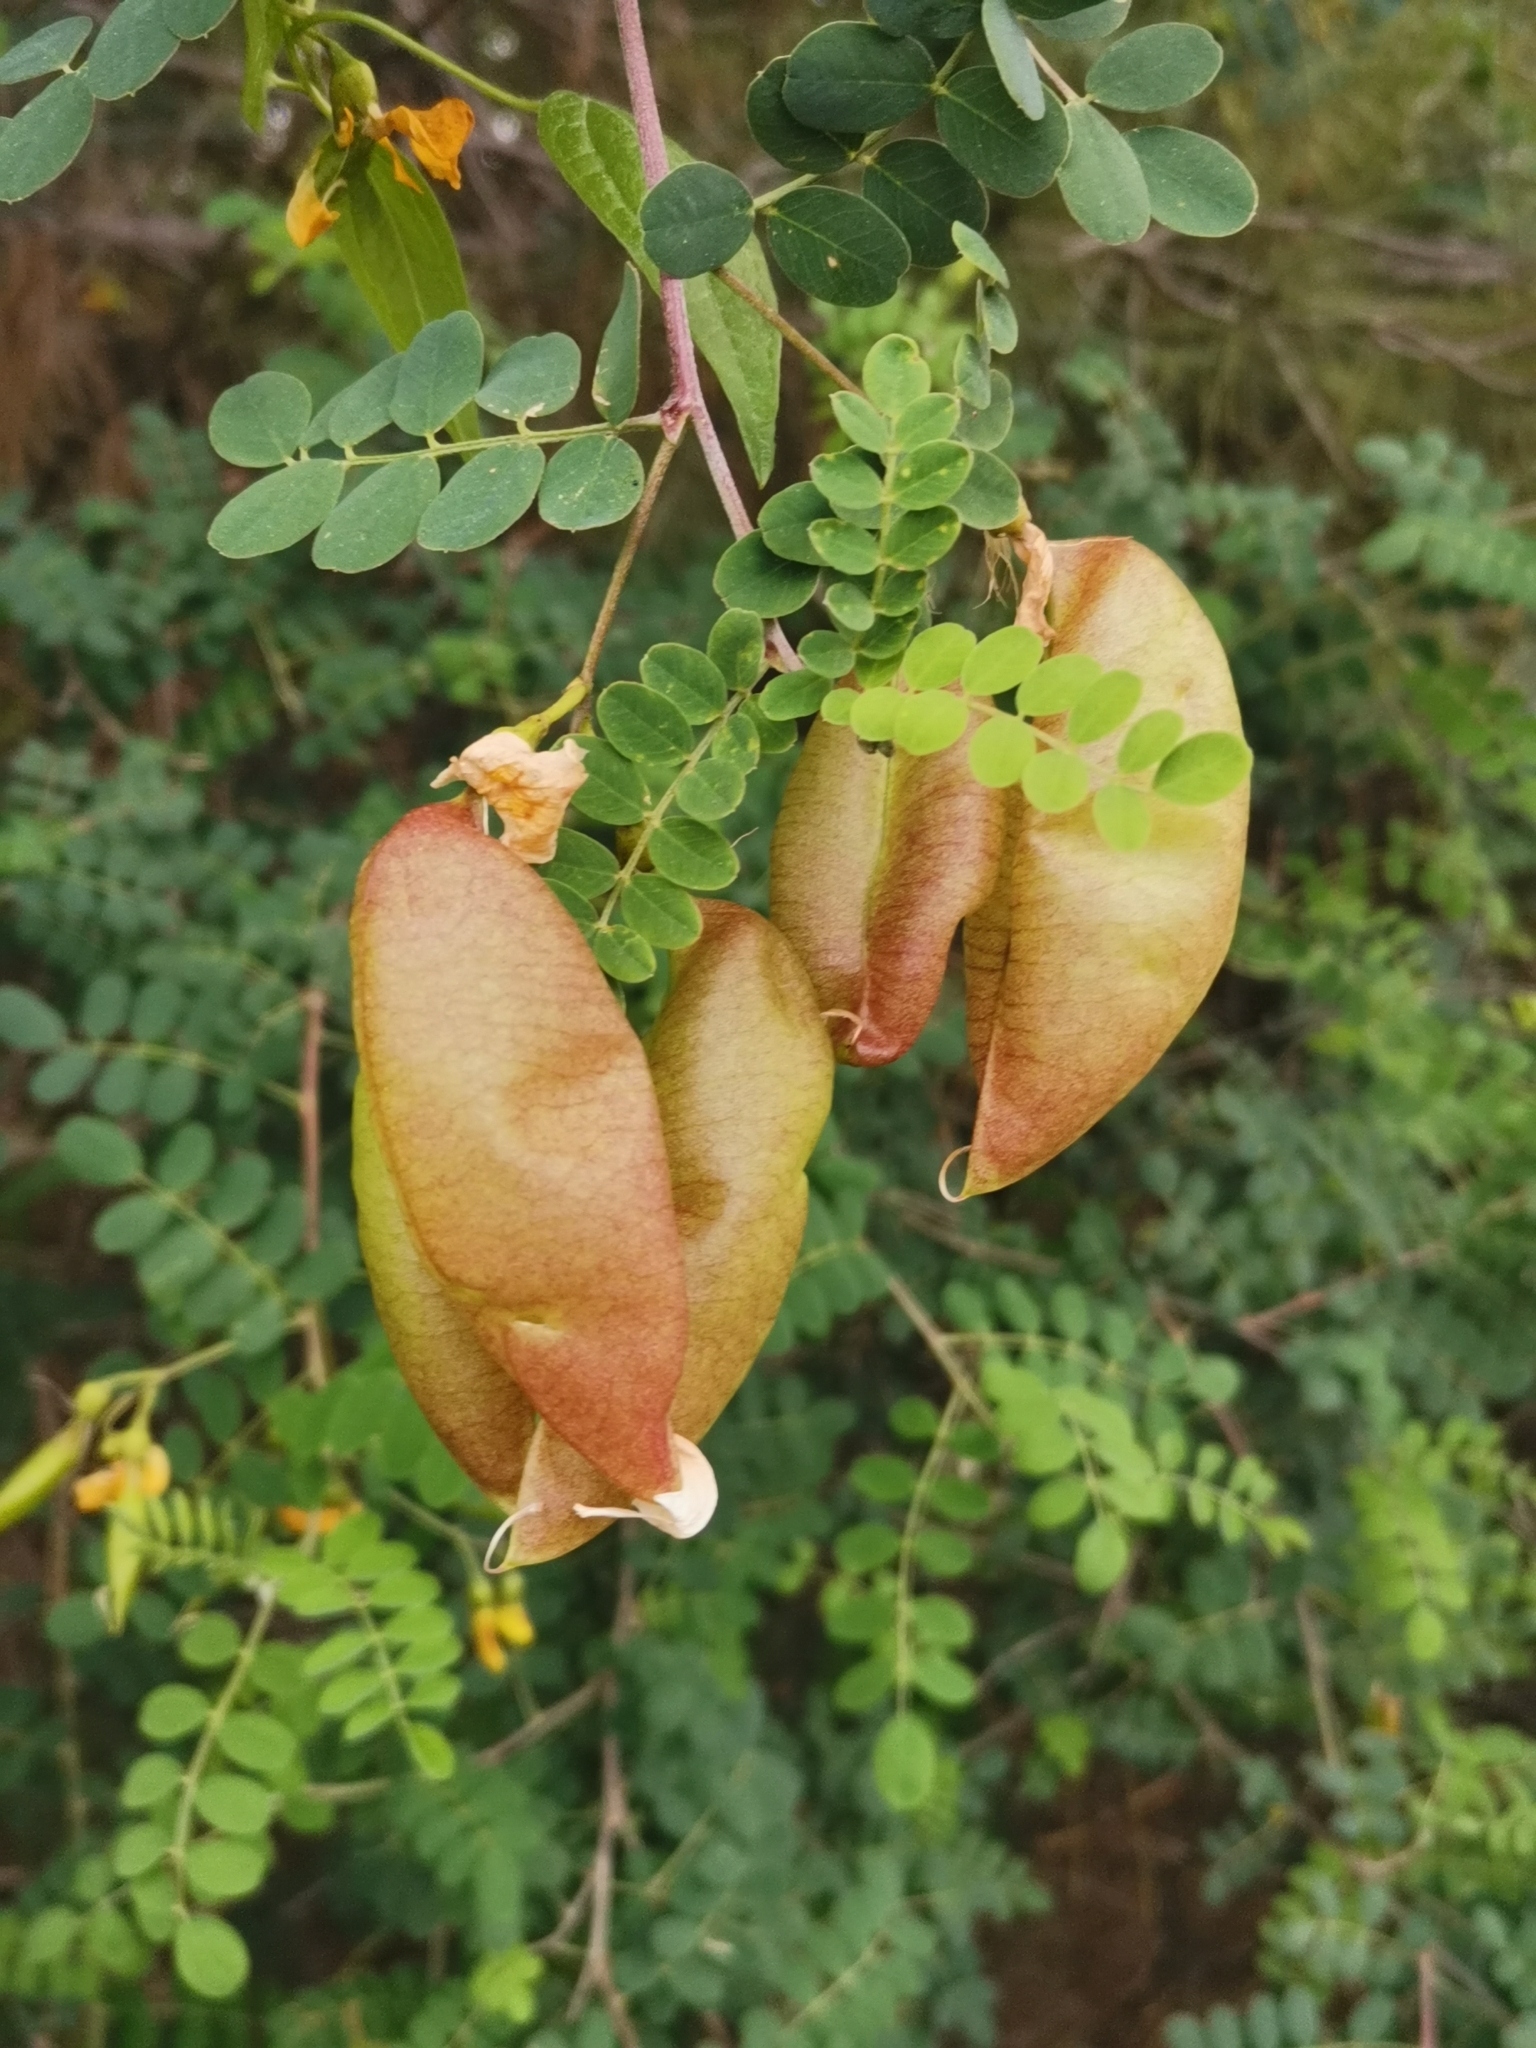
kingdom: Plantae
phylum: Tracheophyta
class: Magnoliopsida
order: Fabales
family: Fabaceae
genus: Colutea
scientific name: Colutea arborescens
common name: Bladder-senna
